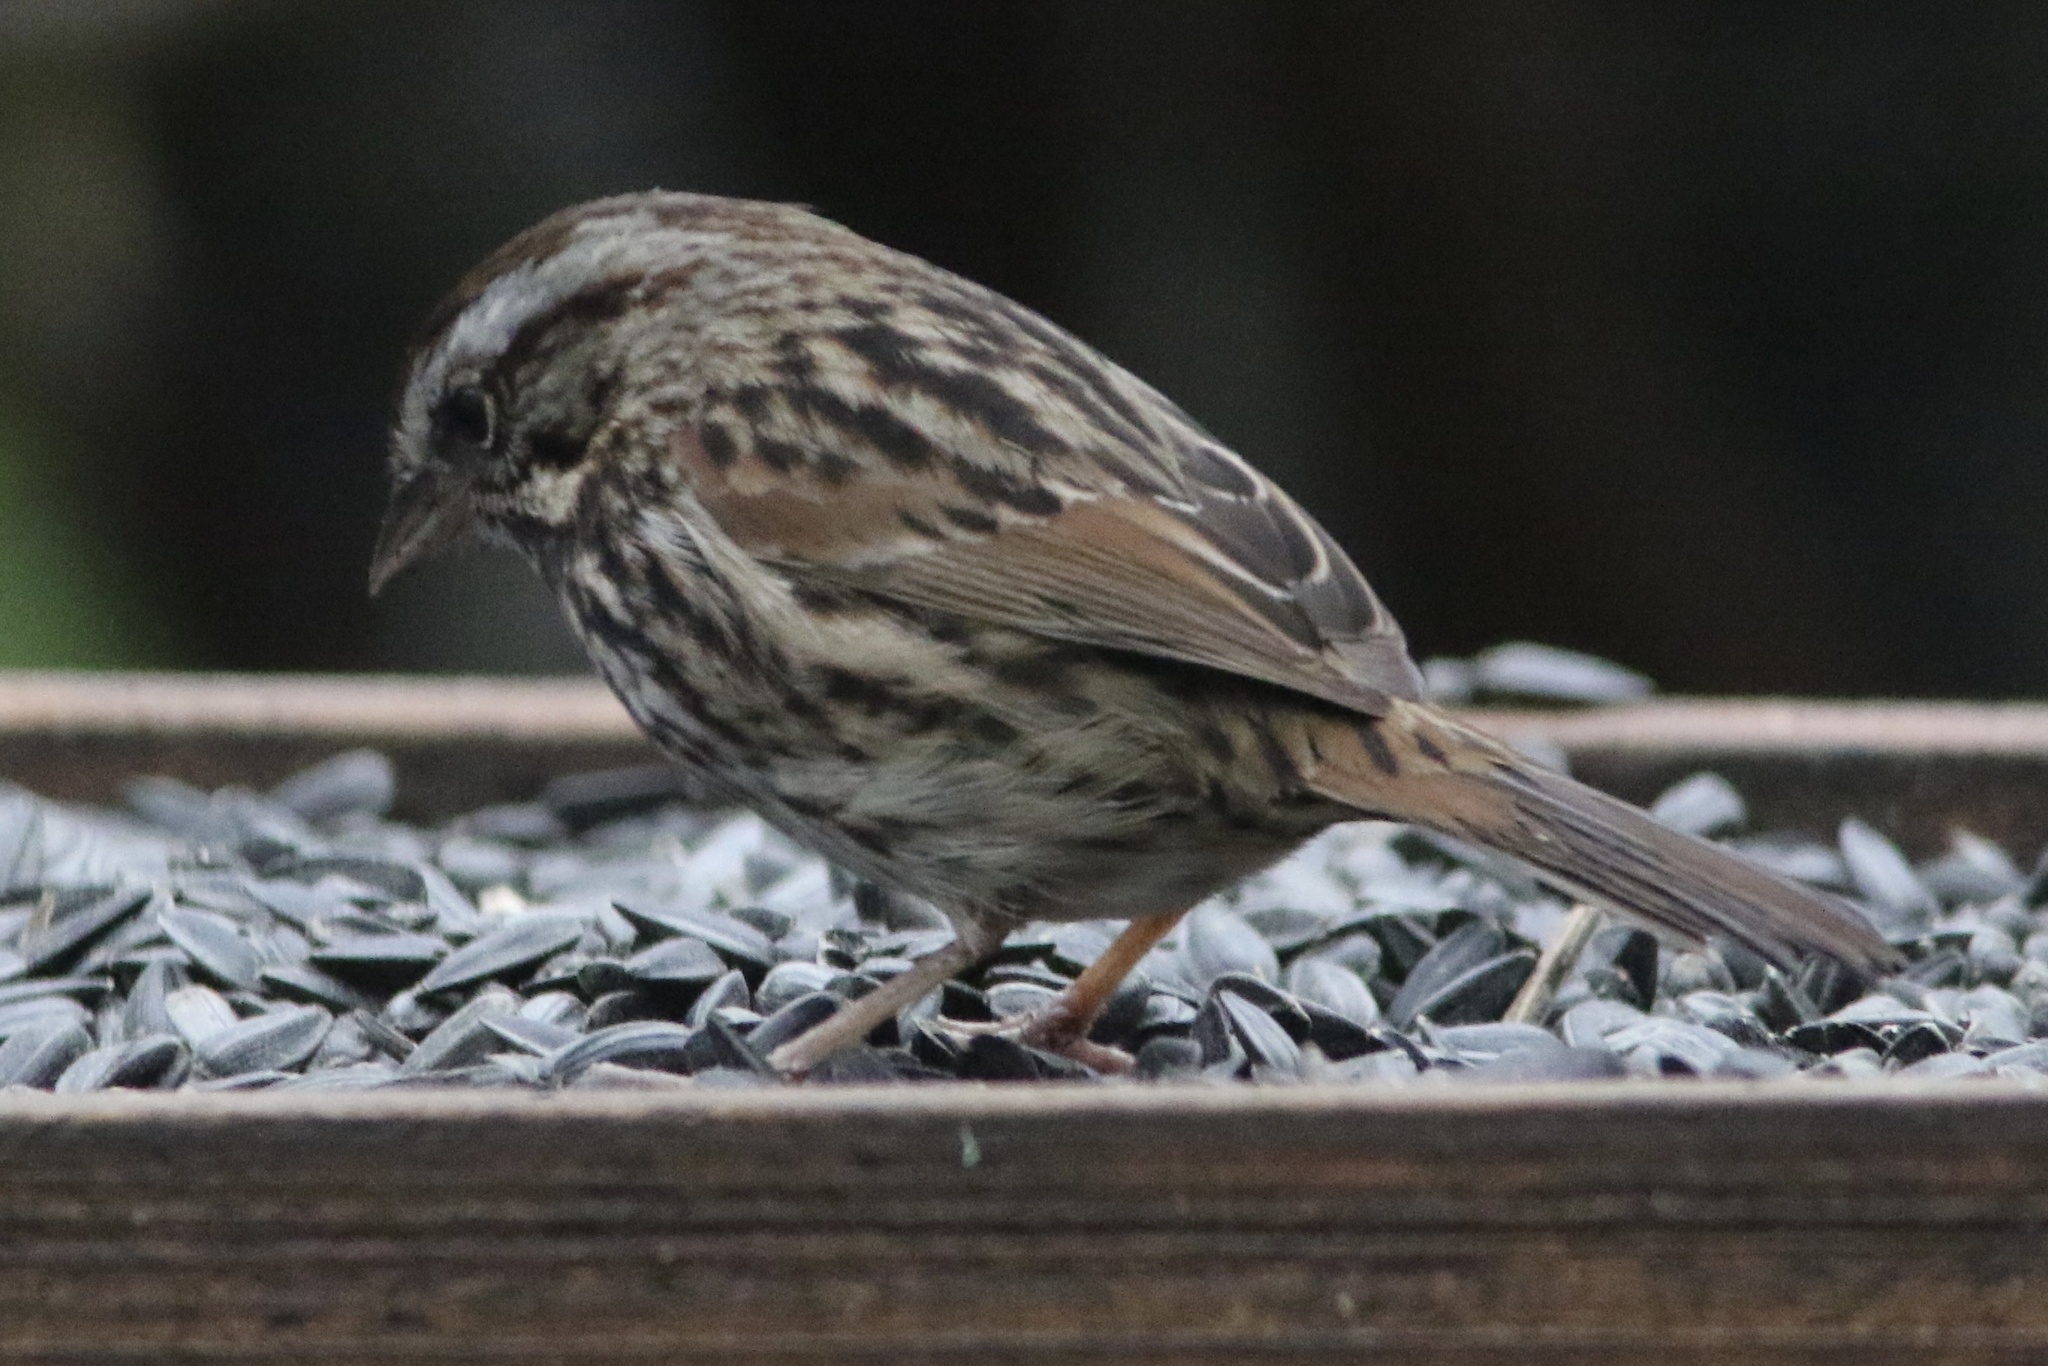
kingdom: Animalia
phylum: Chordata
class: Aves
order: Passeriformes
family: Passerellidae
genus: Melospiza
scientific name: Melospiza melodia
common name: Song sparrow
